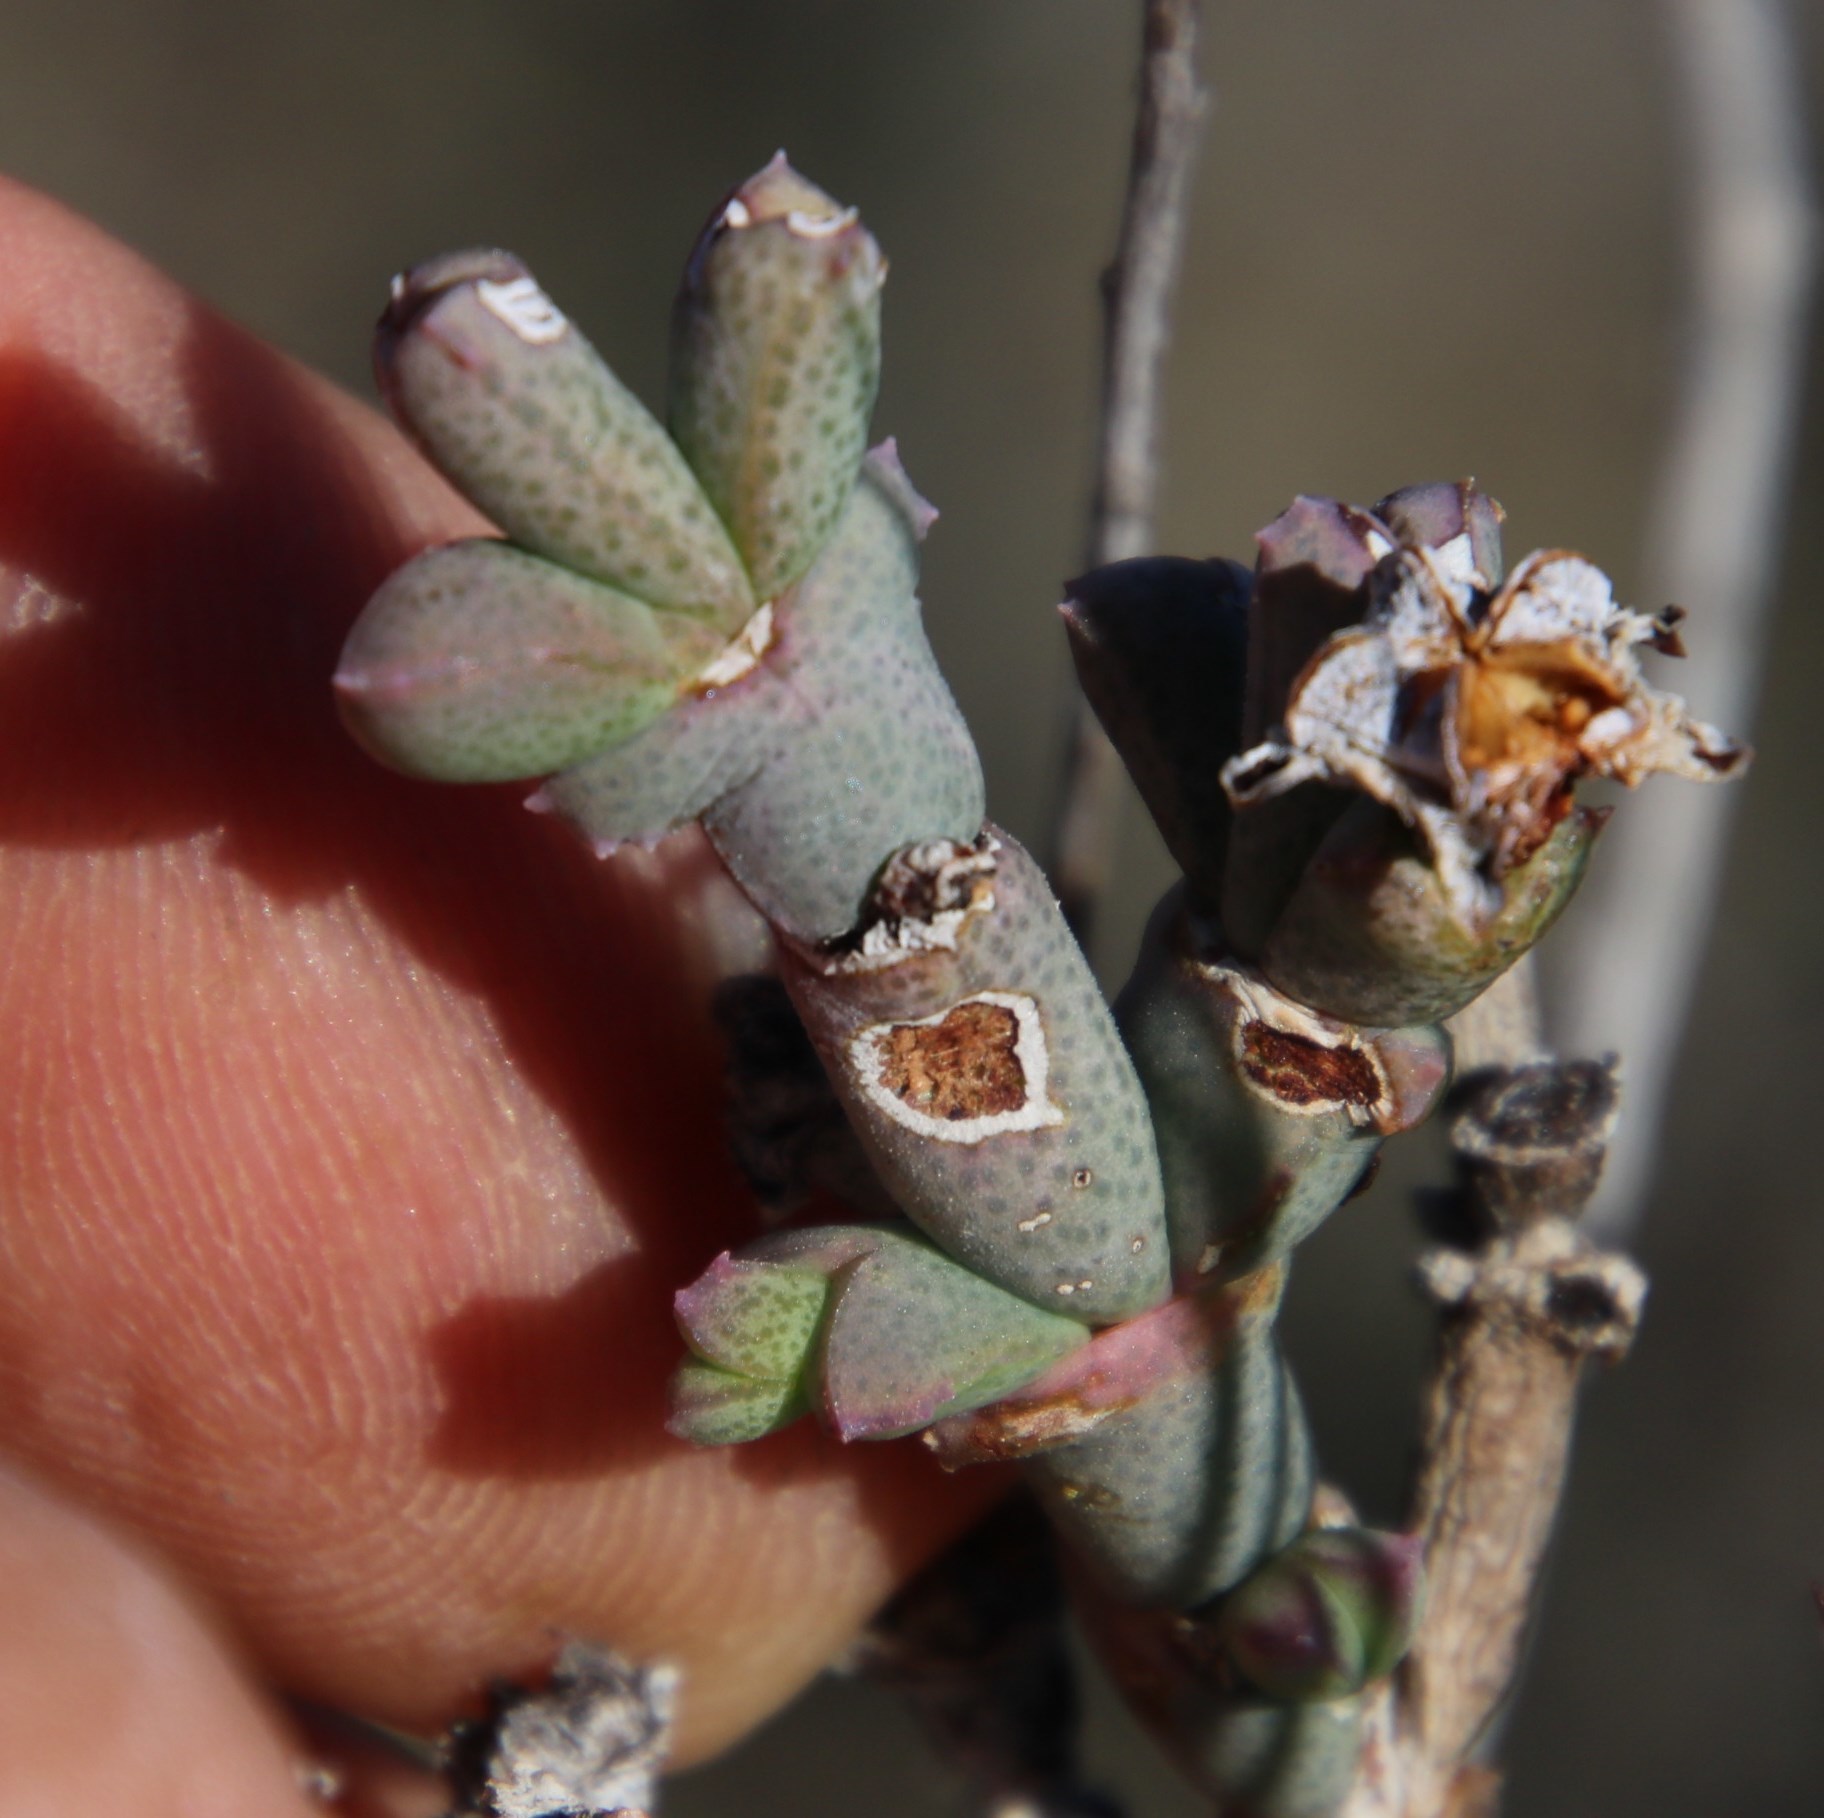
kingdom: Plantae
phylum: Tracheophyta
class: Magnoliopsida
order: Caryophyllales
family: Aizoaceae
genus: Ruschia
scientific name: Ruschia grisea
